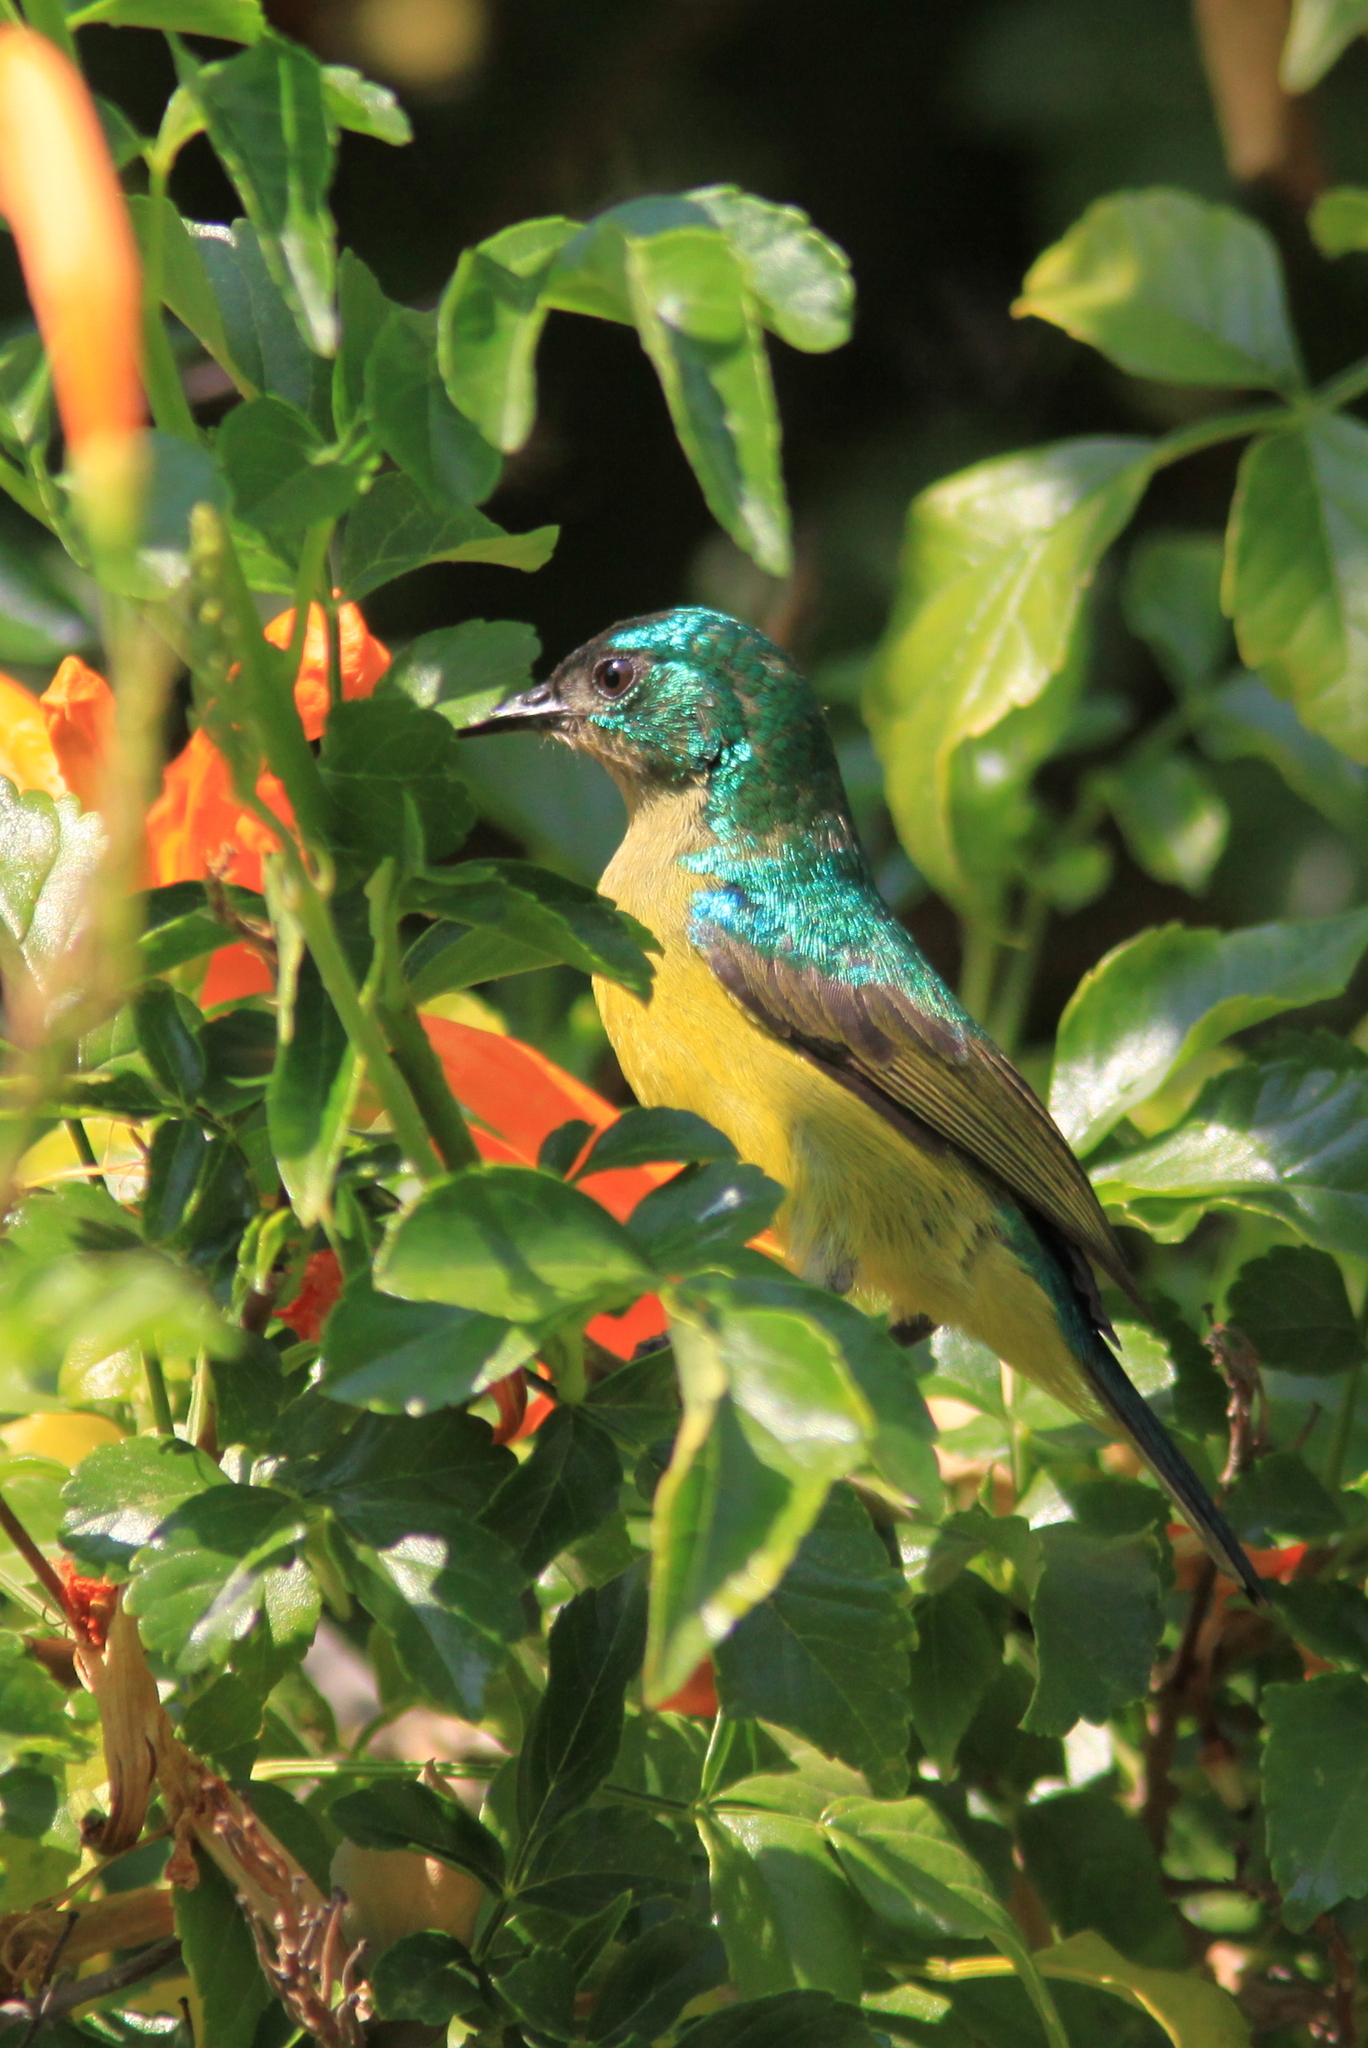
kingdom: Animalia
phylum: Chordata
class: Aves
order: Passeriformes
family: Nectariniidae
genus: Hedydipna
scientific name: Hedydipna collaris
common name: Collared sunbird
